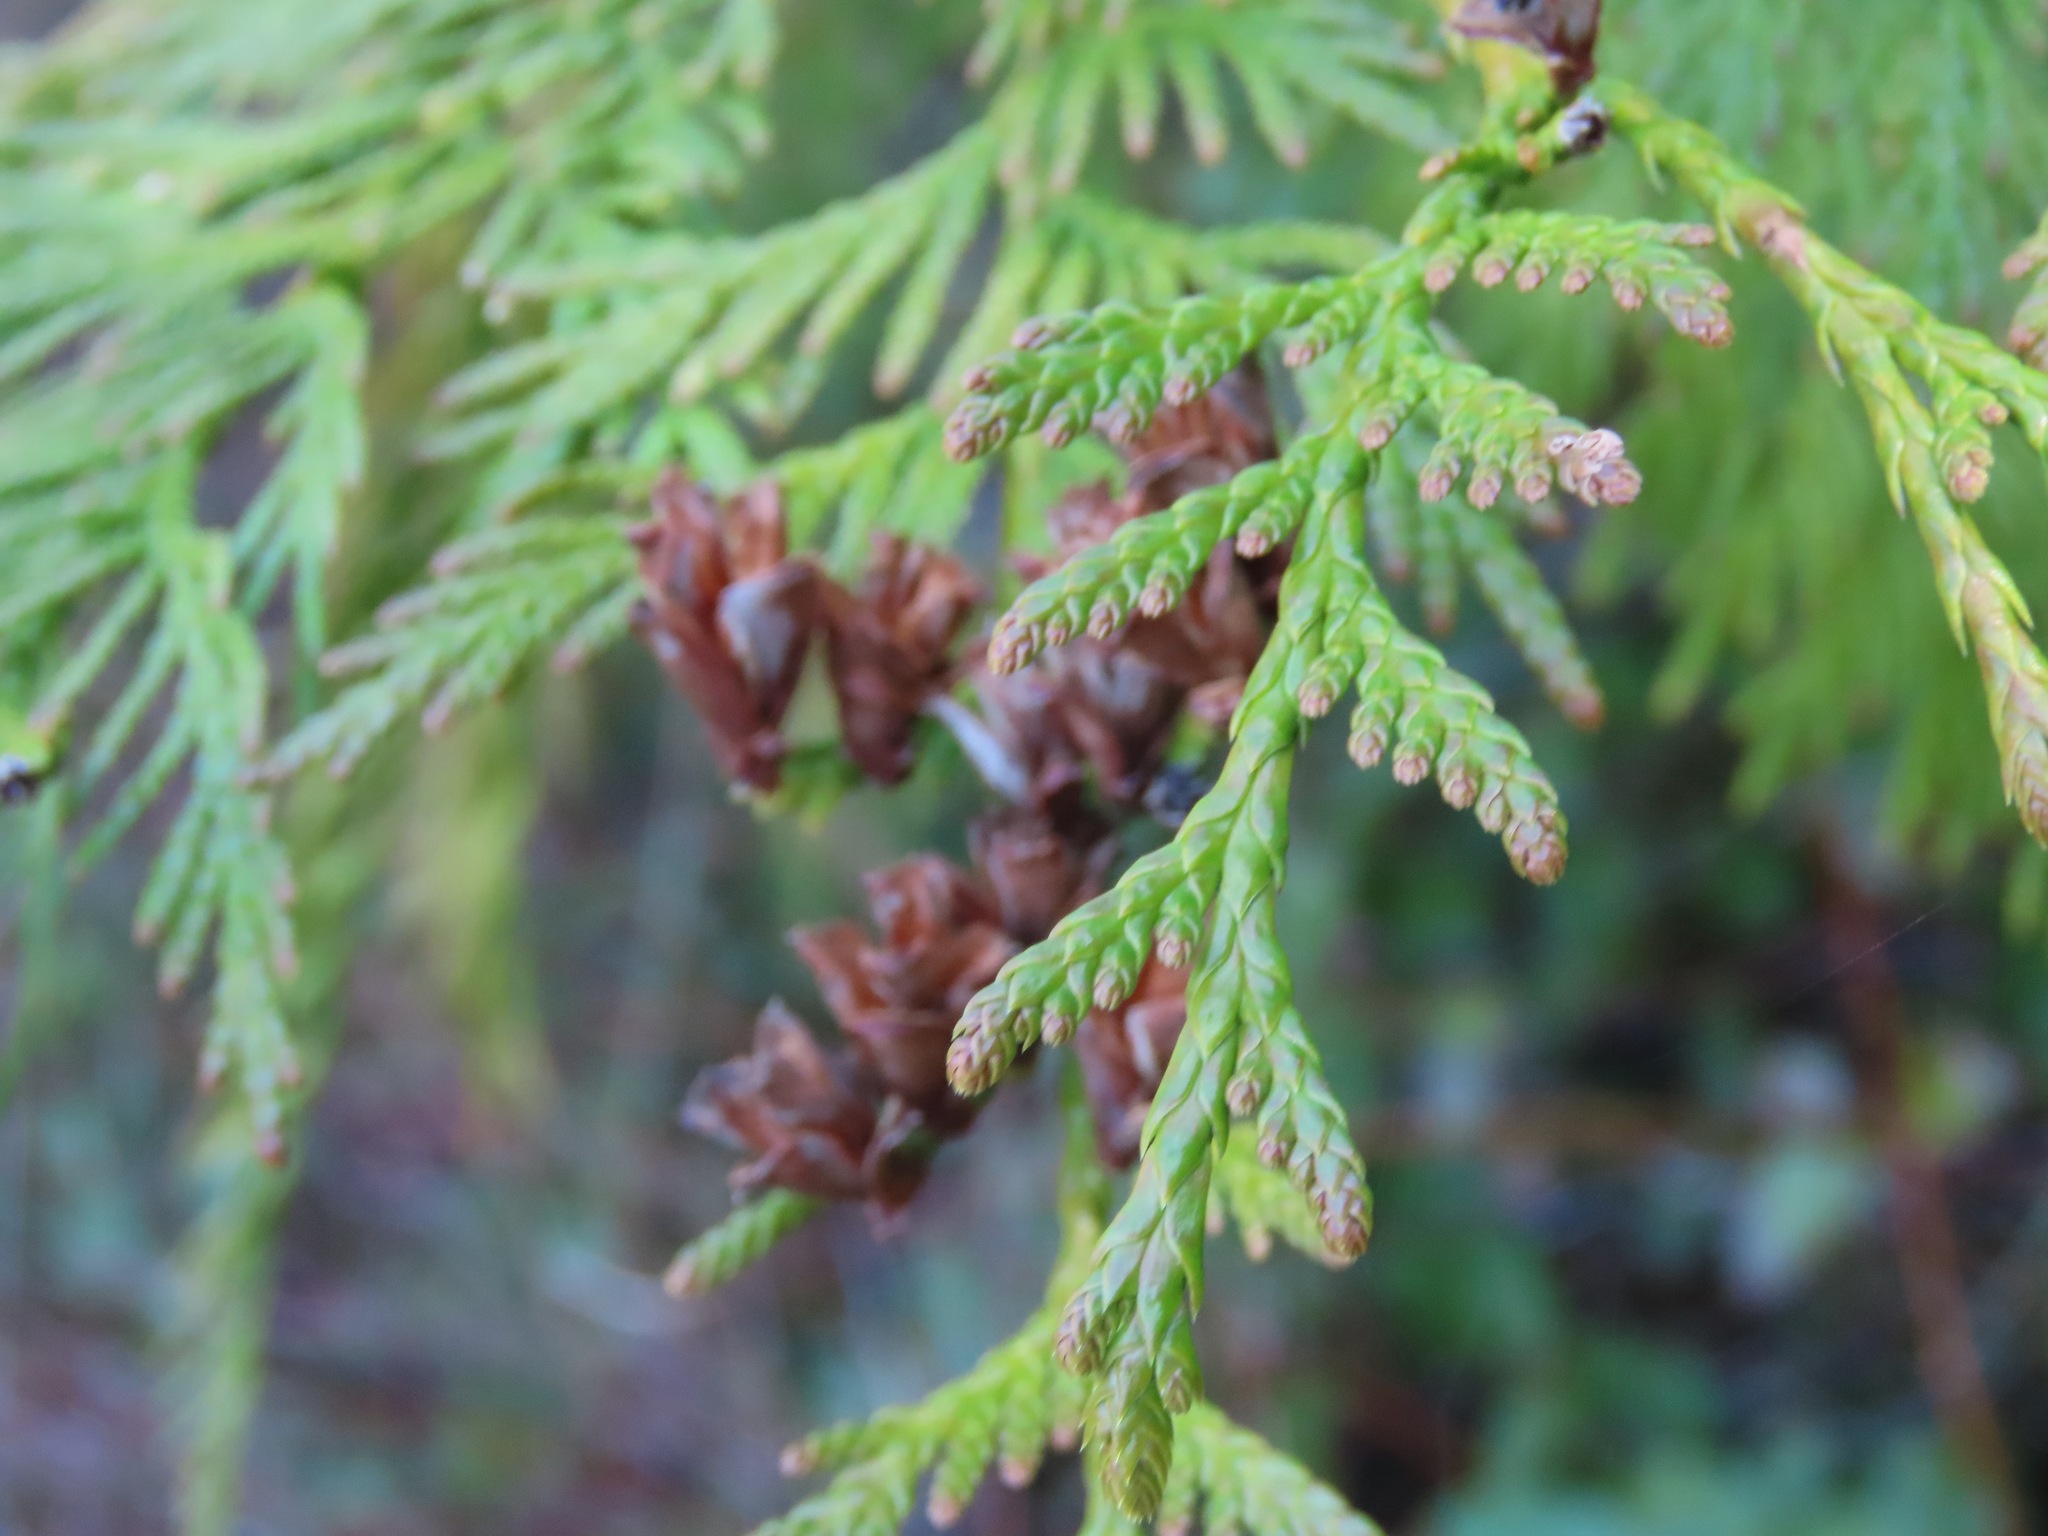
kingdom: Plantae
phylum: Tracheophyta
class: Pinopsida
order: Pinales
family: Cupressaceae
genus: Thuja
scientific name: Thuja plicata
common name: Western red-cedar
